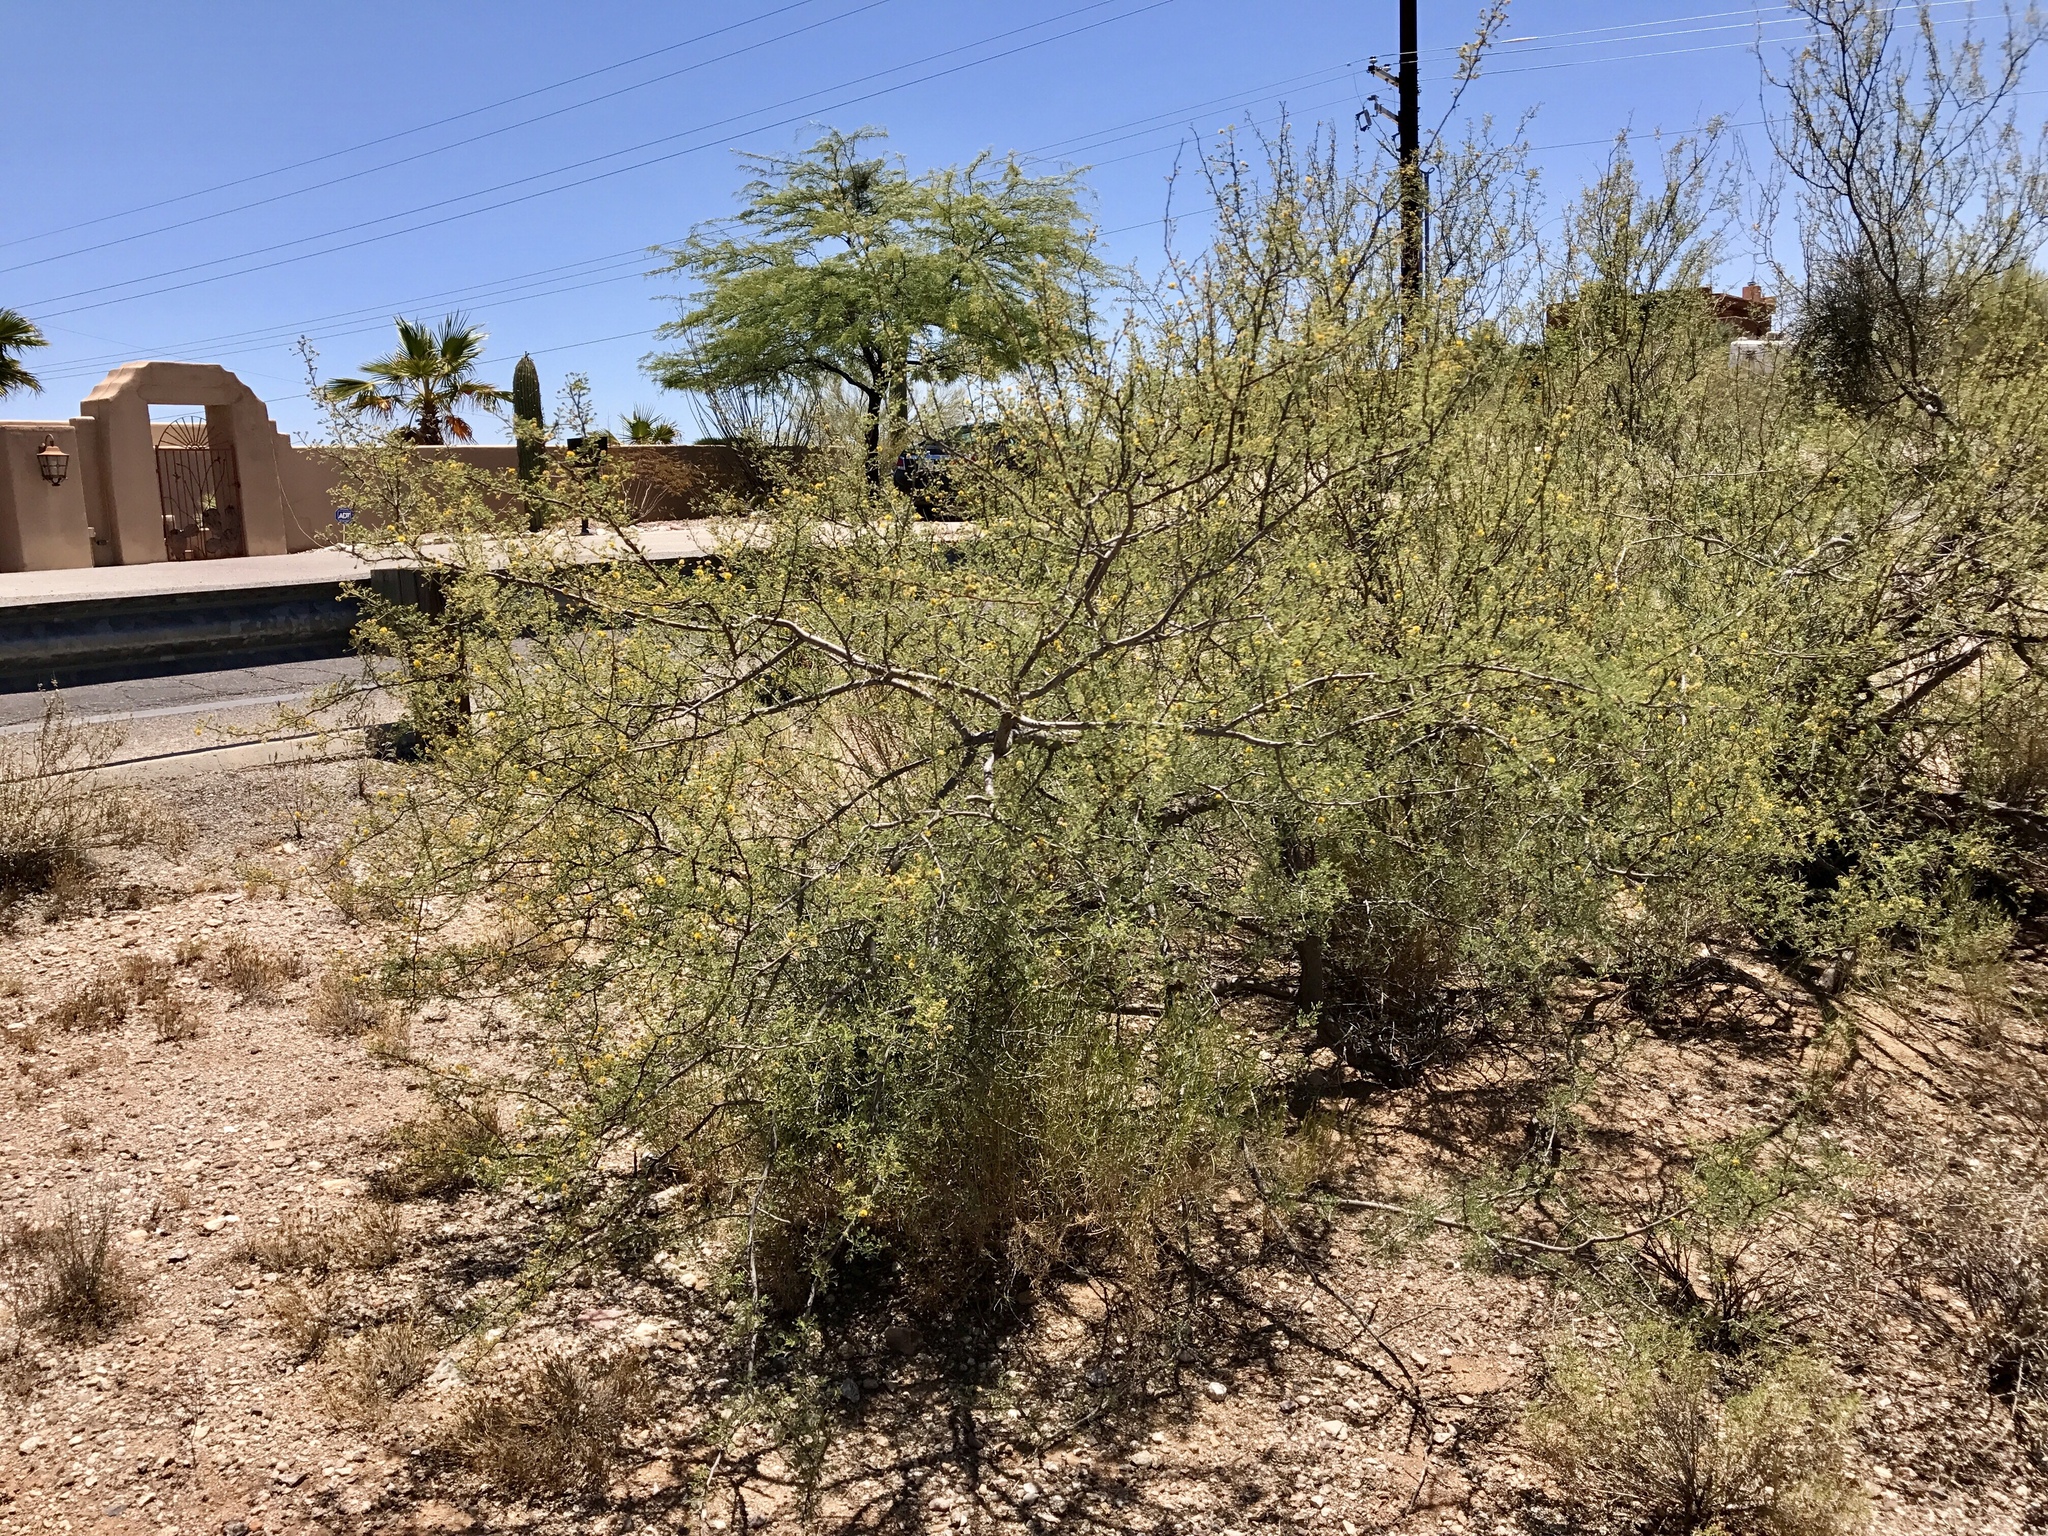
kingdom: Plantae
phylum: Tracheophyta
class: Magnoliopsida
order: Fabales
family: Fabaceae
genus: Vachellia
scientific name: Vachellia constricta
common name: Mescat acacia
